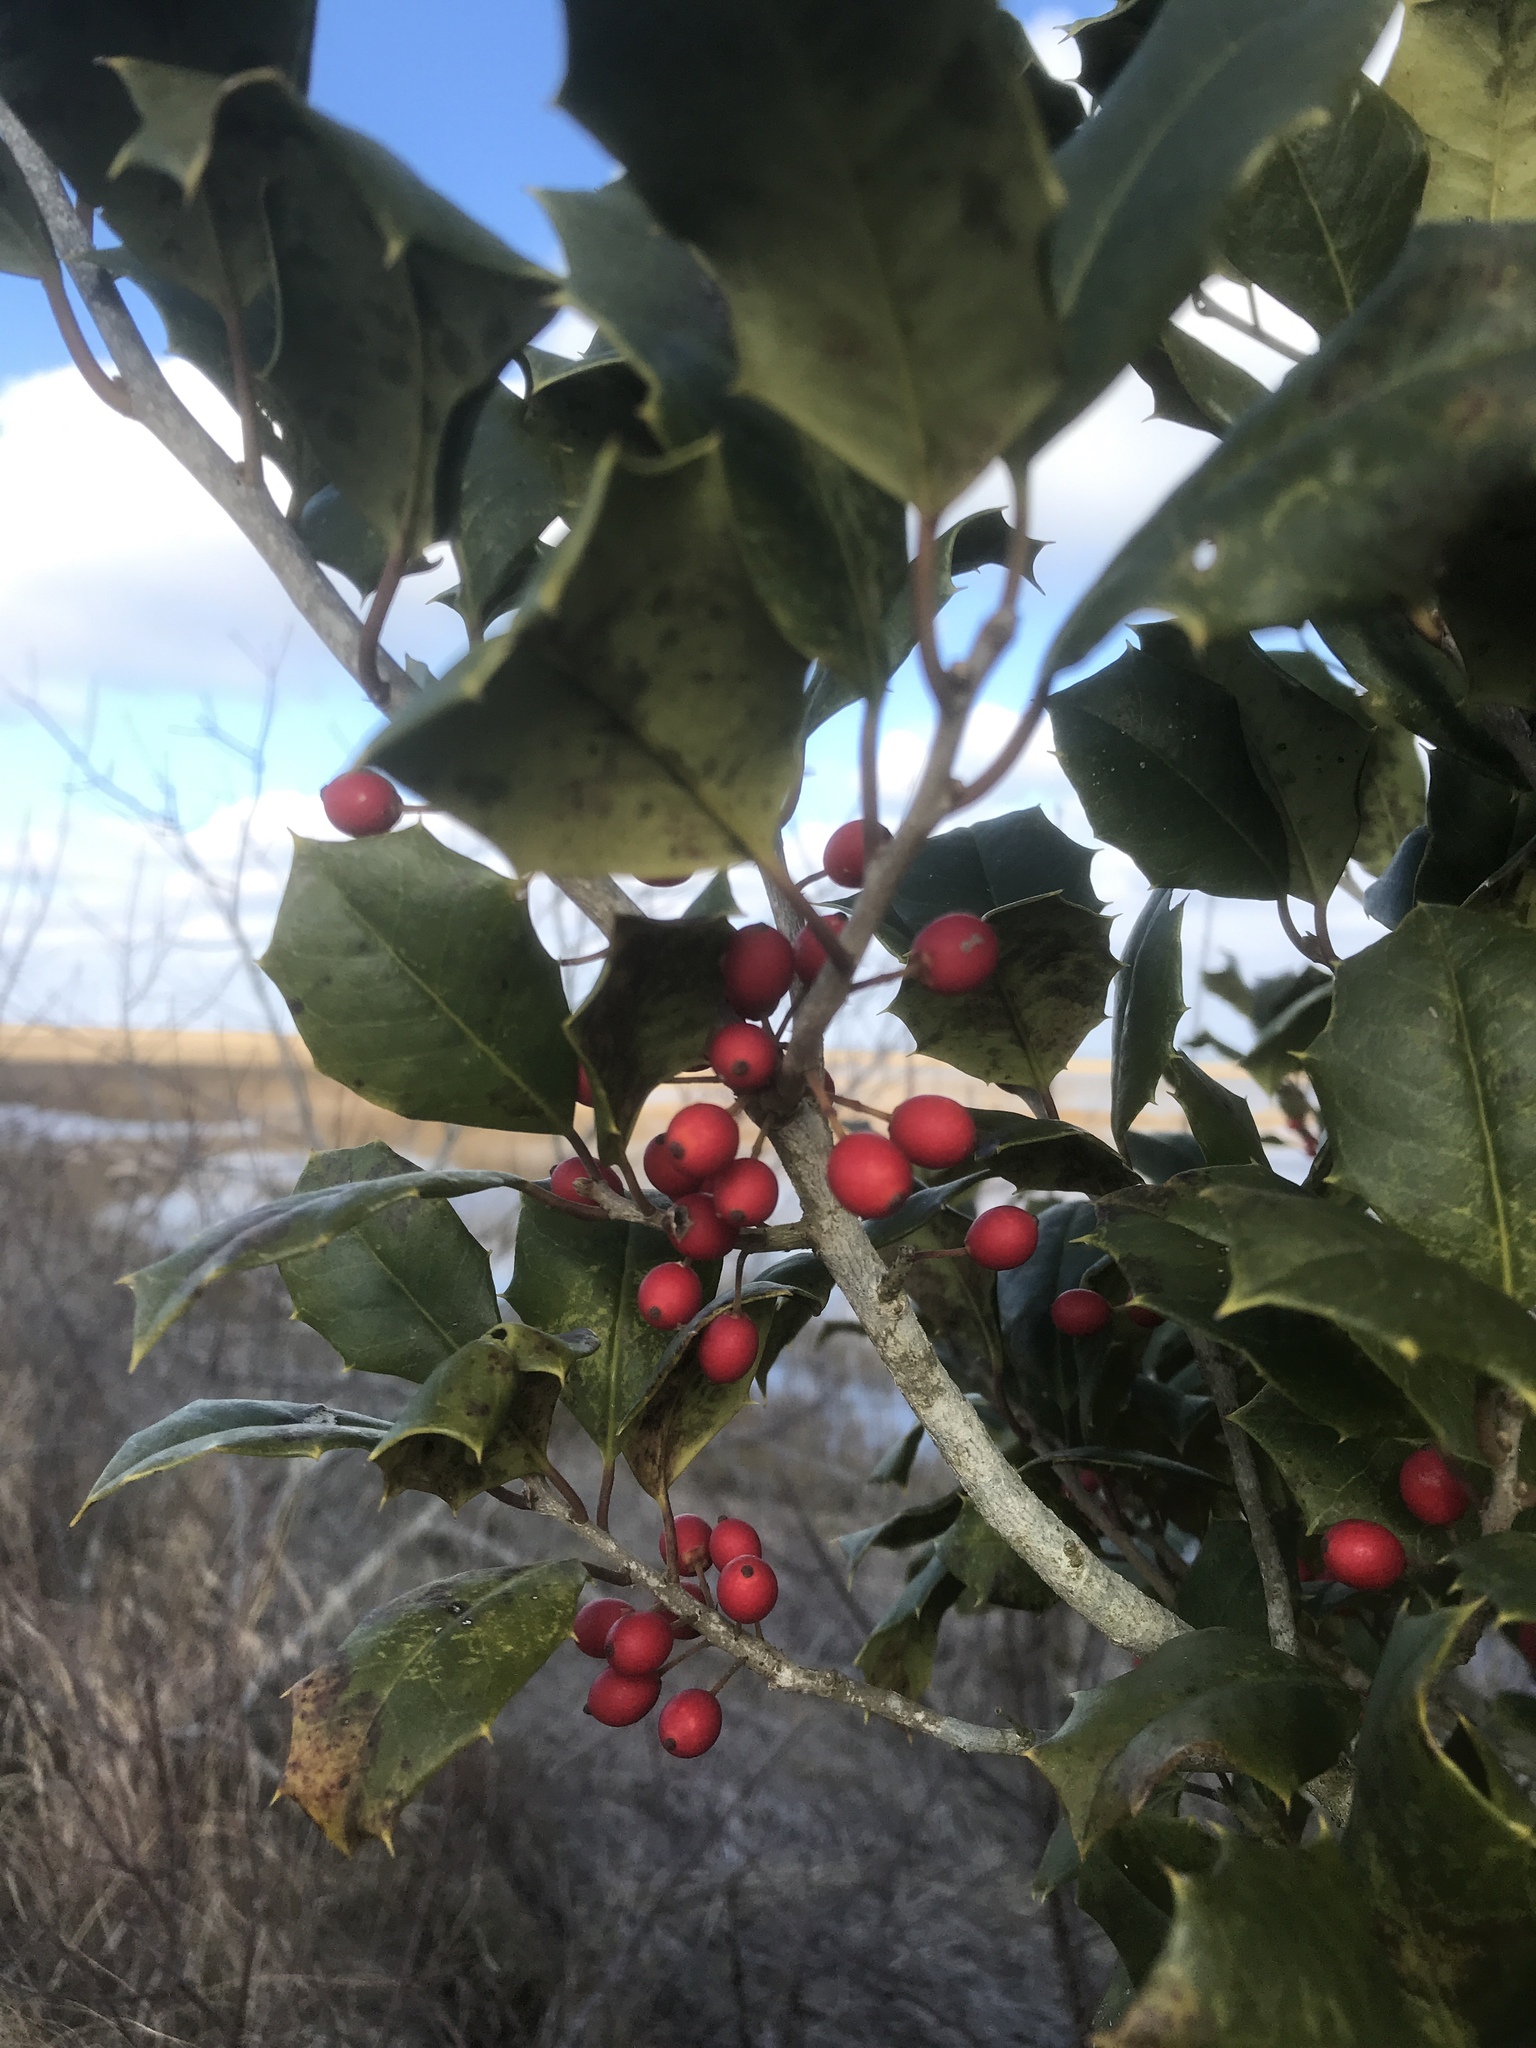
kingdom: Plantae
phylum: Tracheophyta
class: Magnoliopsida
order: Aquifoliales
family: Aquifoliaceae
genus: Ilex
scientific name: Ilex opaca
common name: American holly
